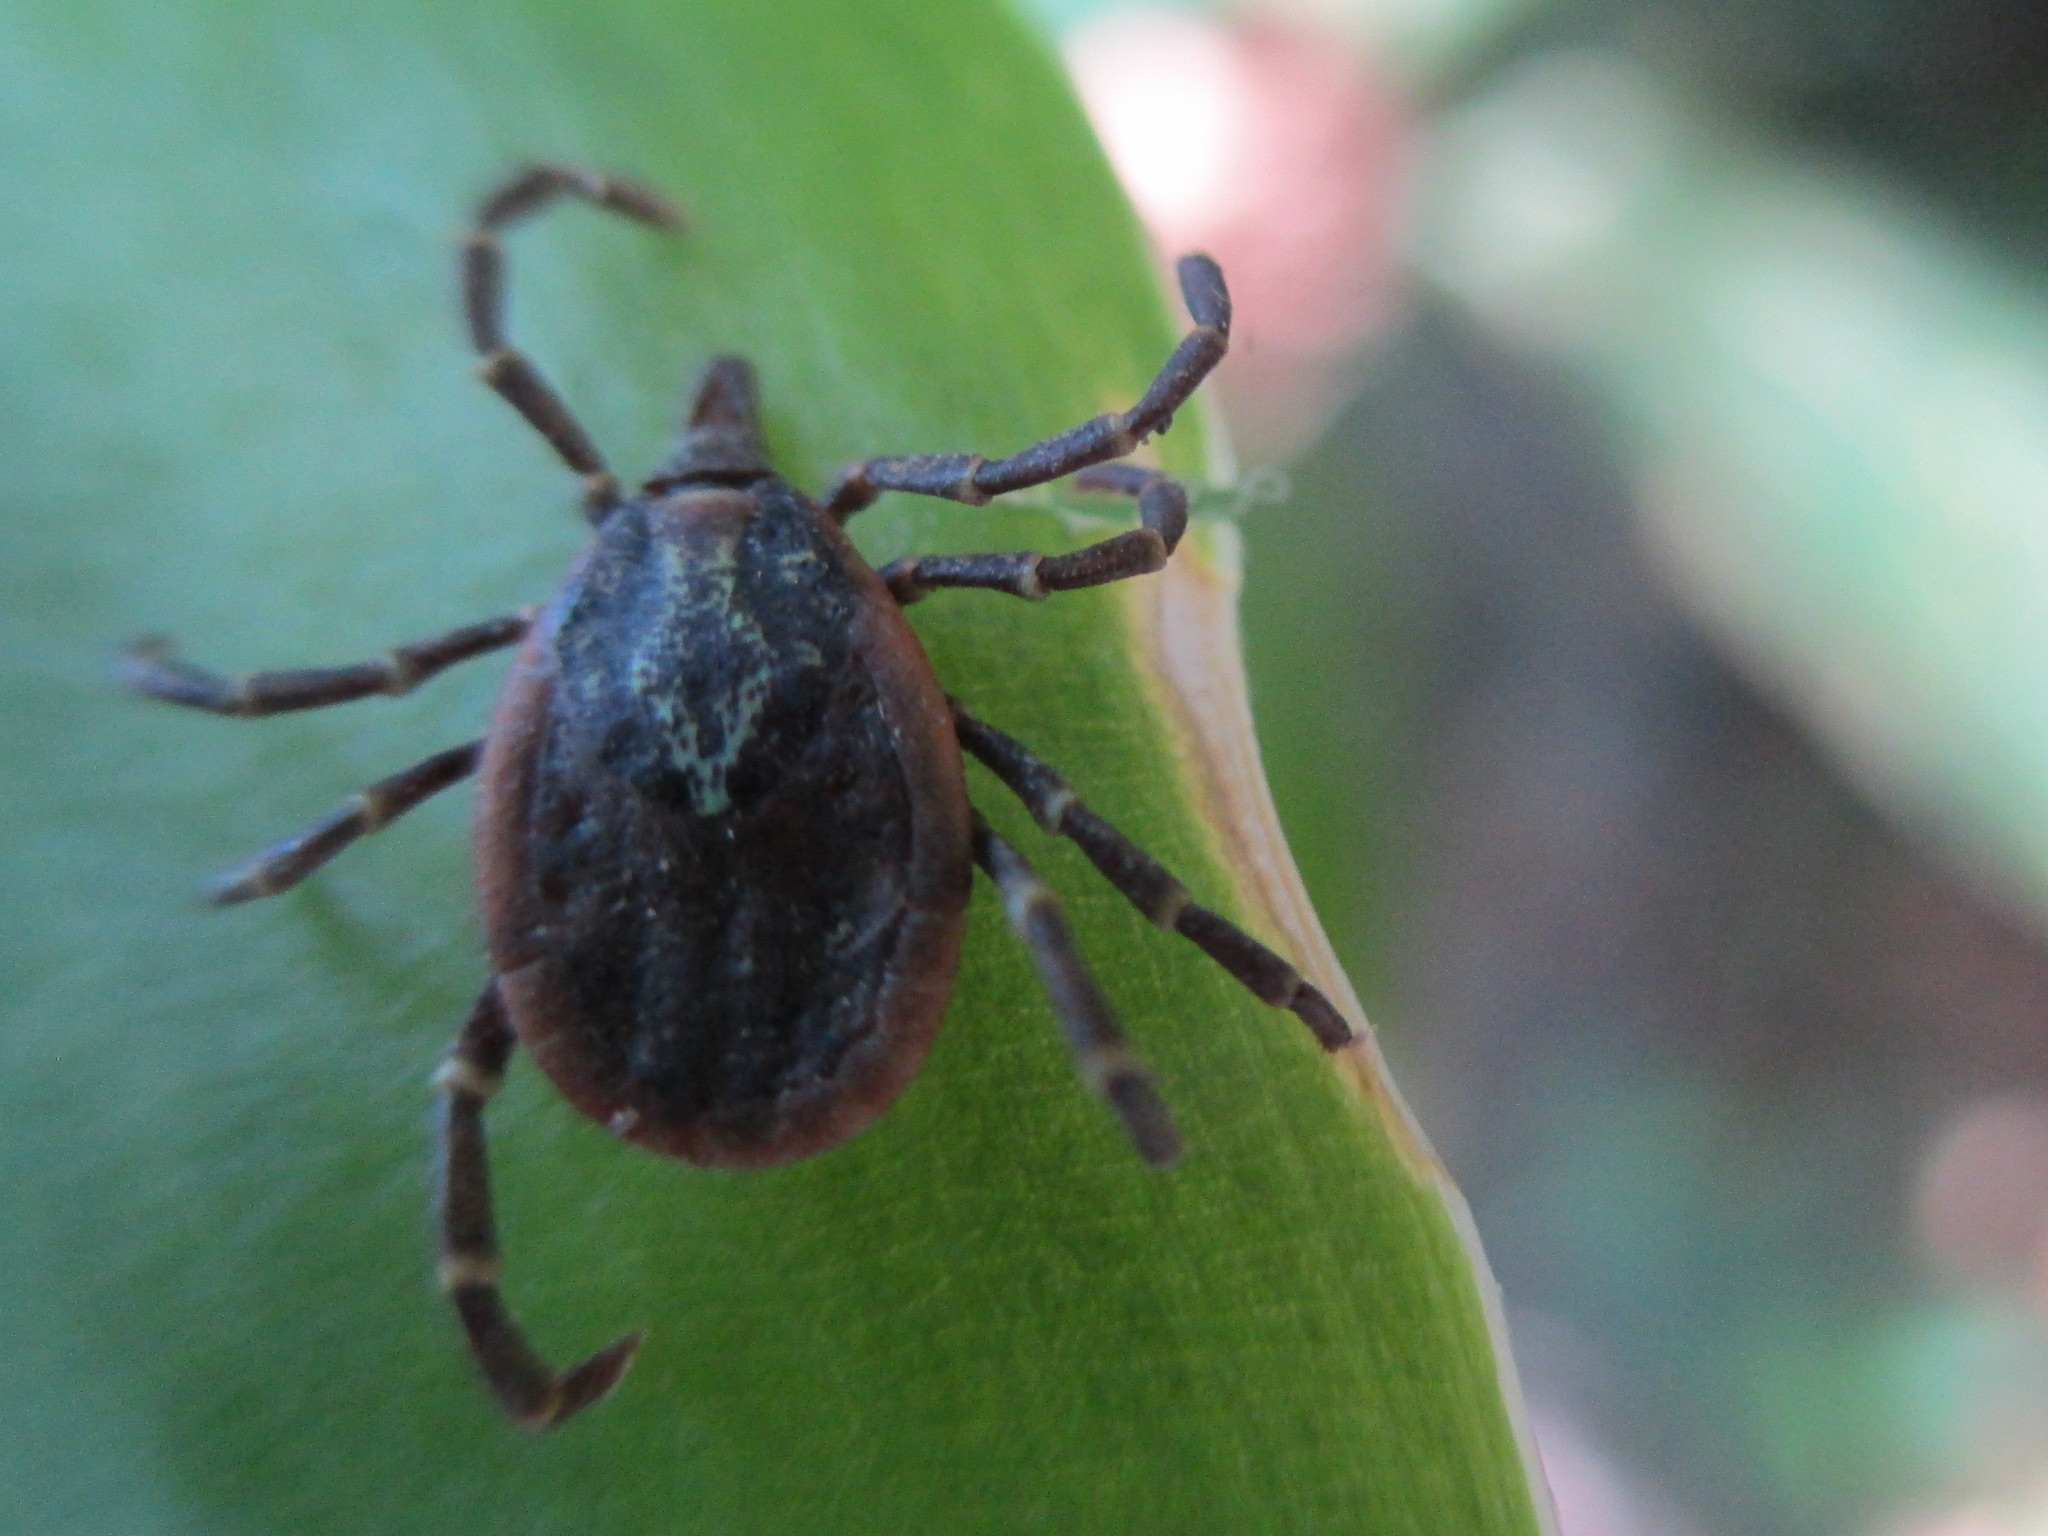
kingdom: Animalia
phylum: Arthropoda
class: Arachnida
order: Ixodida
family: Ixodidae
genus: Amblyomma
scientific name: Amblyomma longirostre
